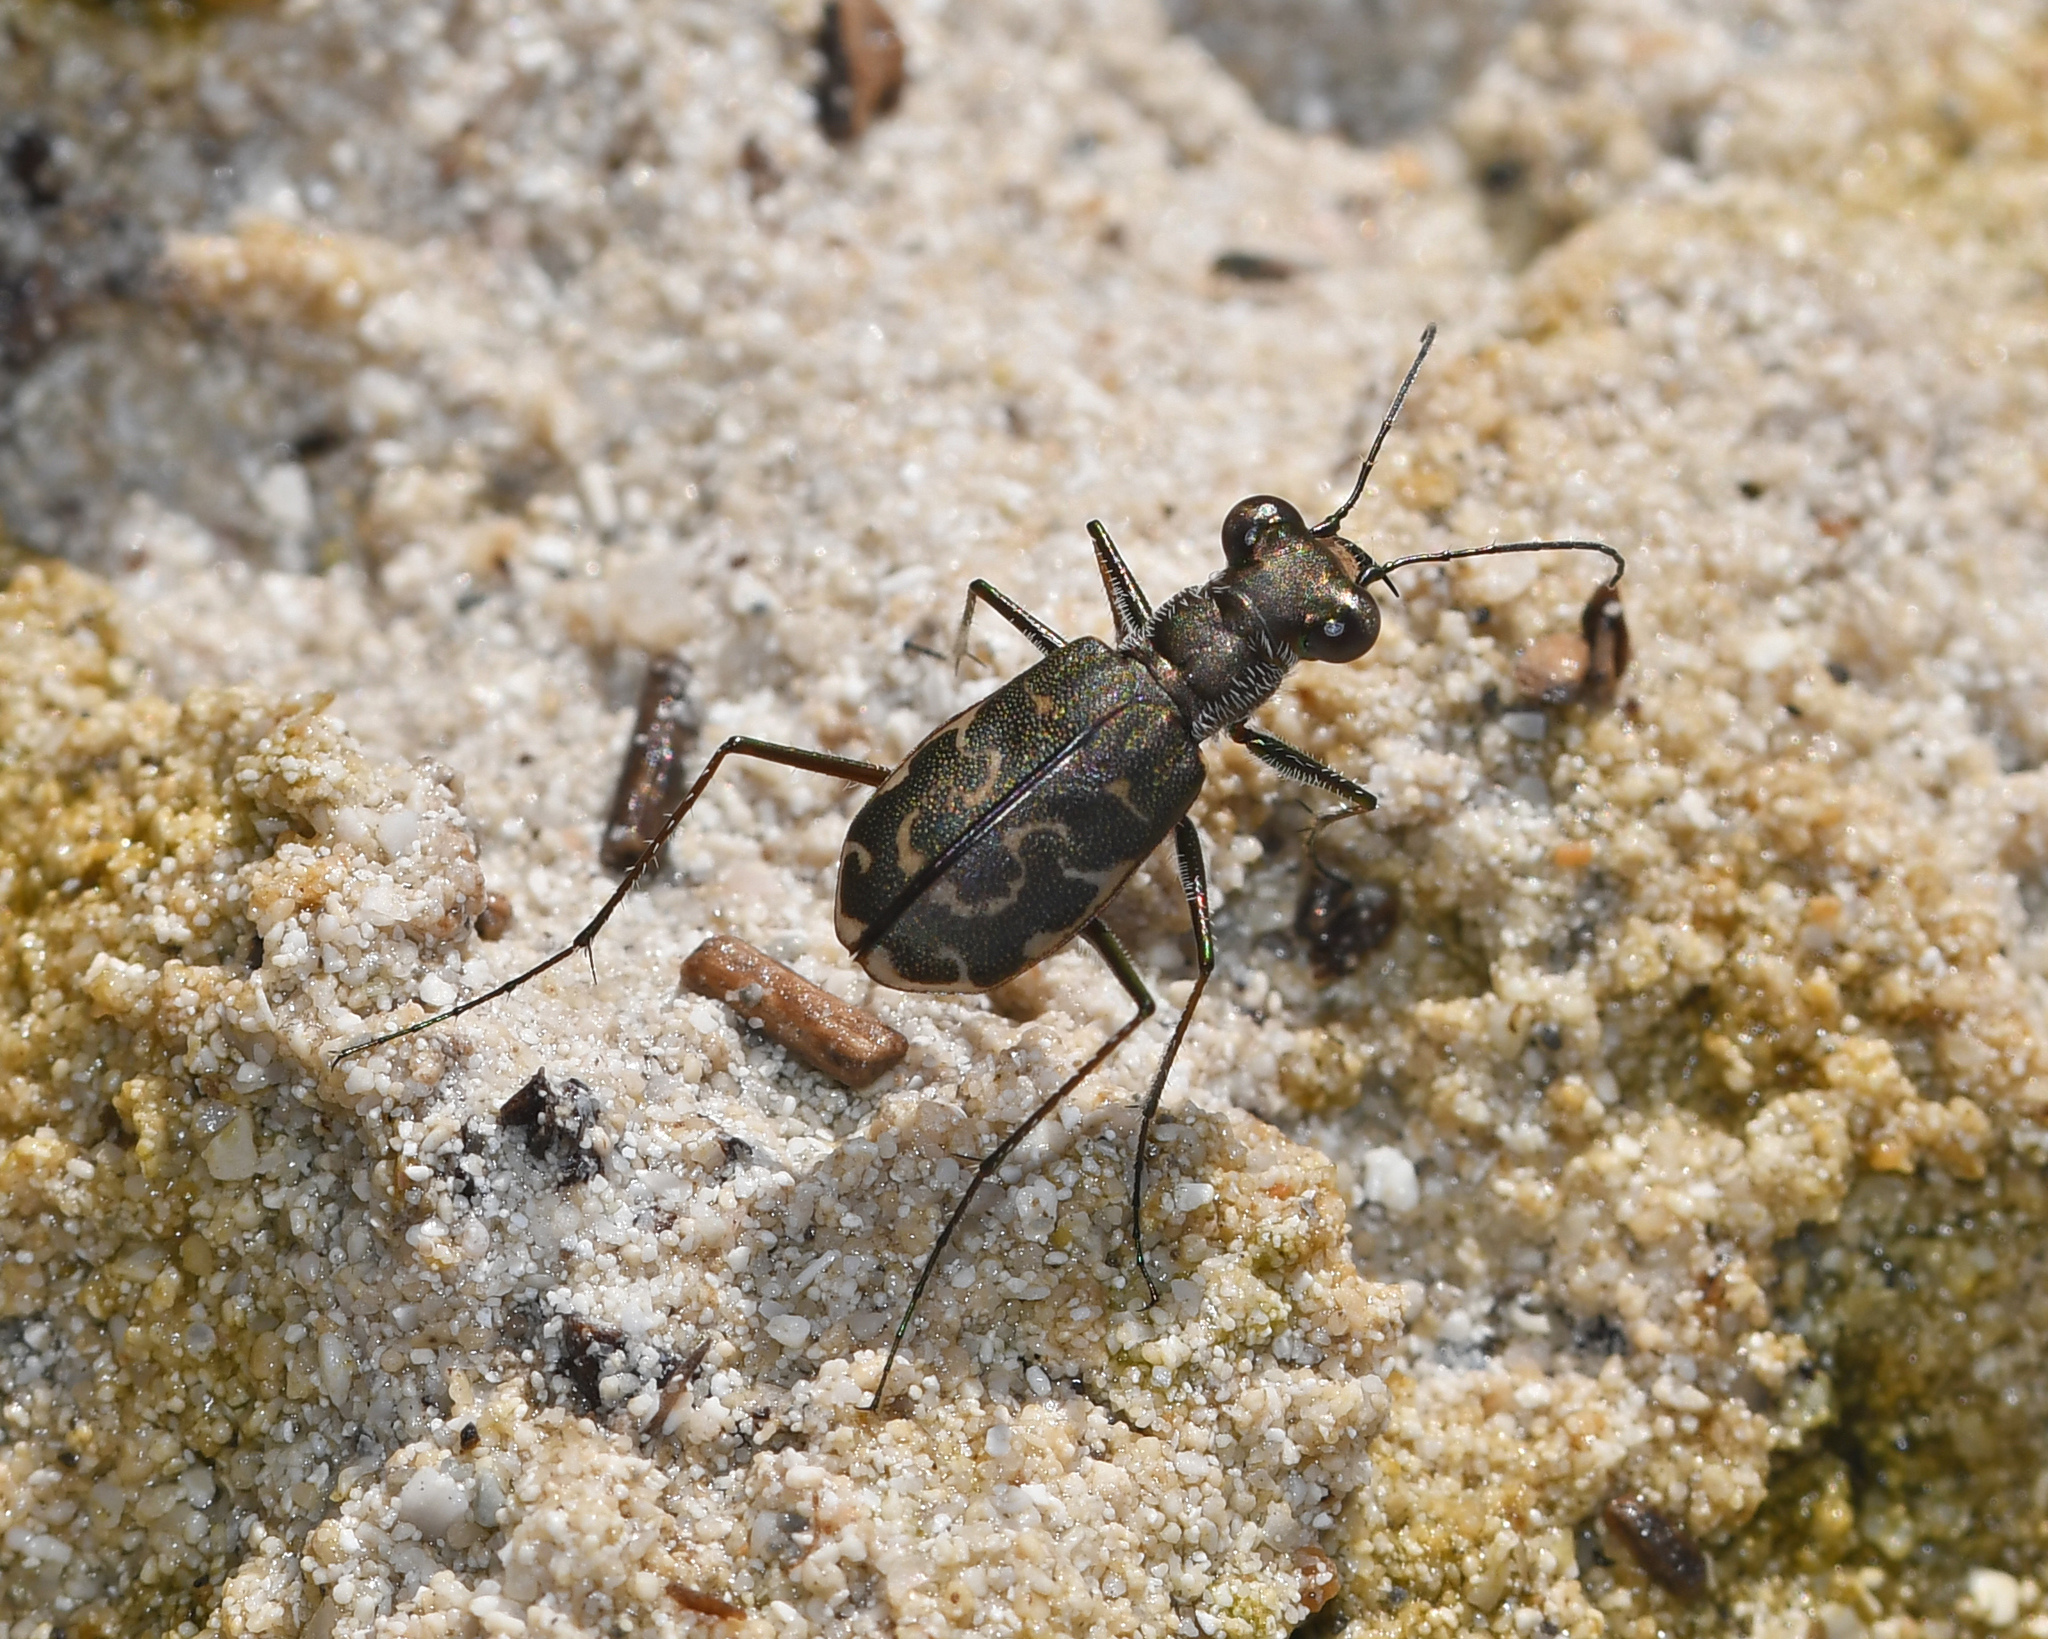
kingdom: Animalia
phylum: Arthropoda
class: Insecta
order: Coleoptera
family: Carabidae
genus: Cicindela
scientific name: Cicindela trifasciata
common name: Mudflat tiger beetle
